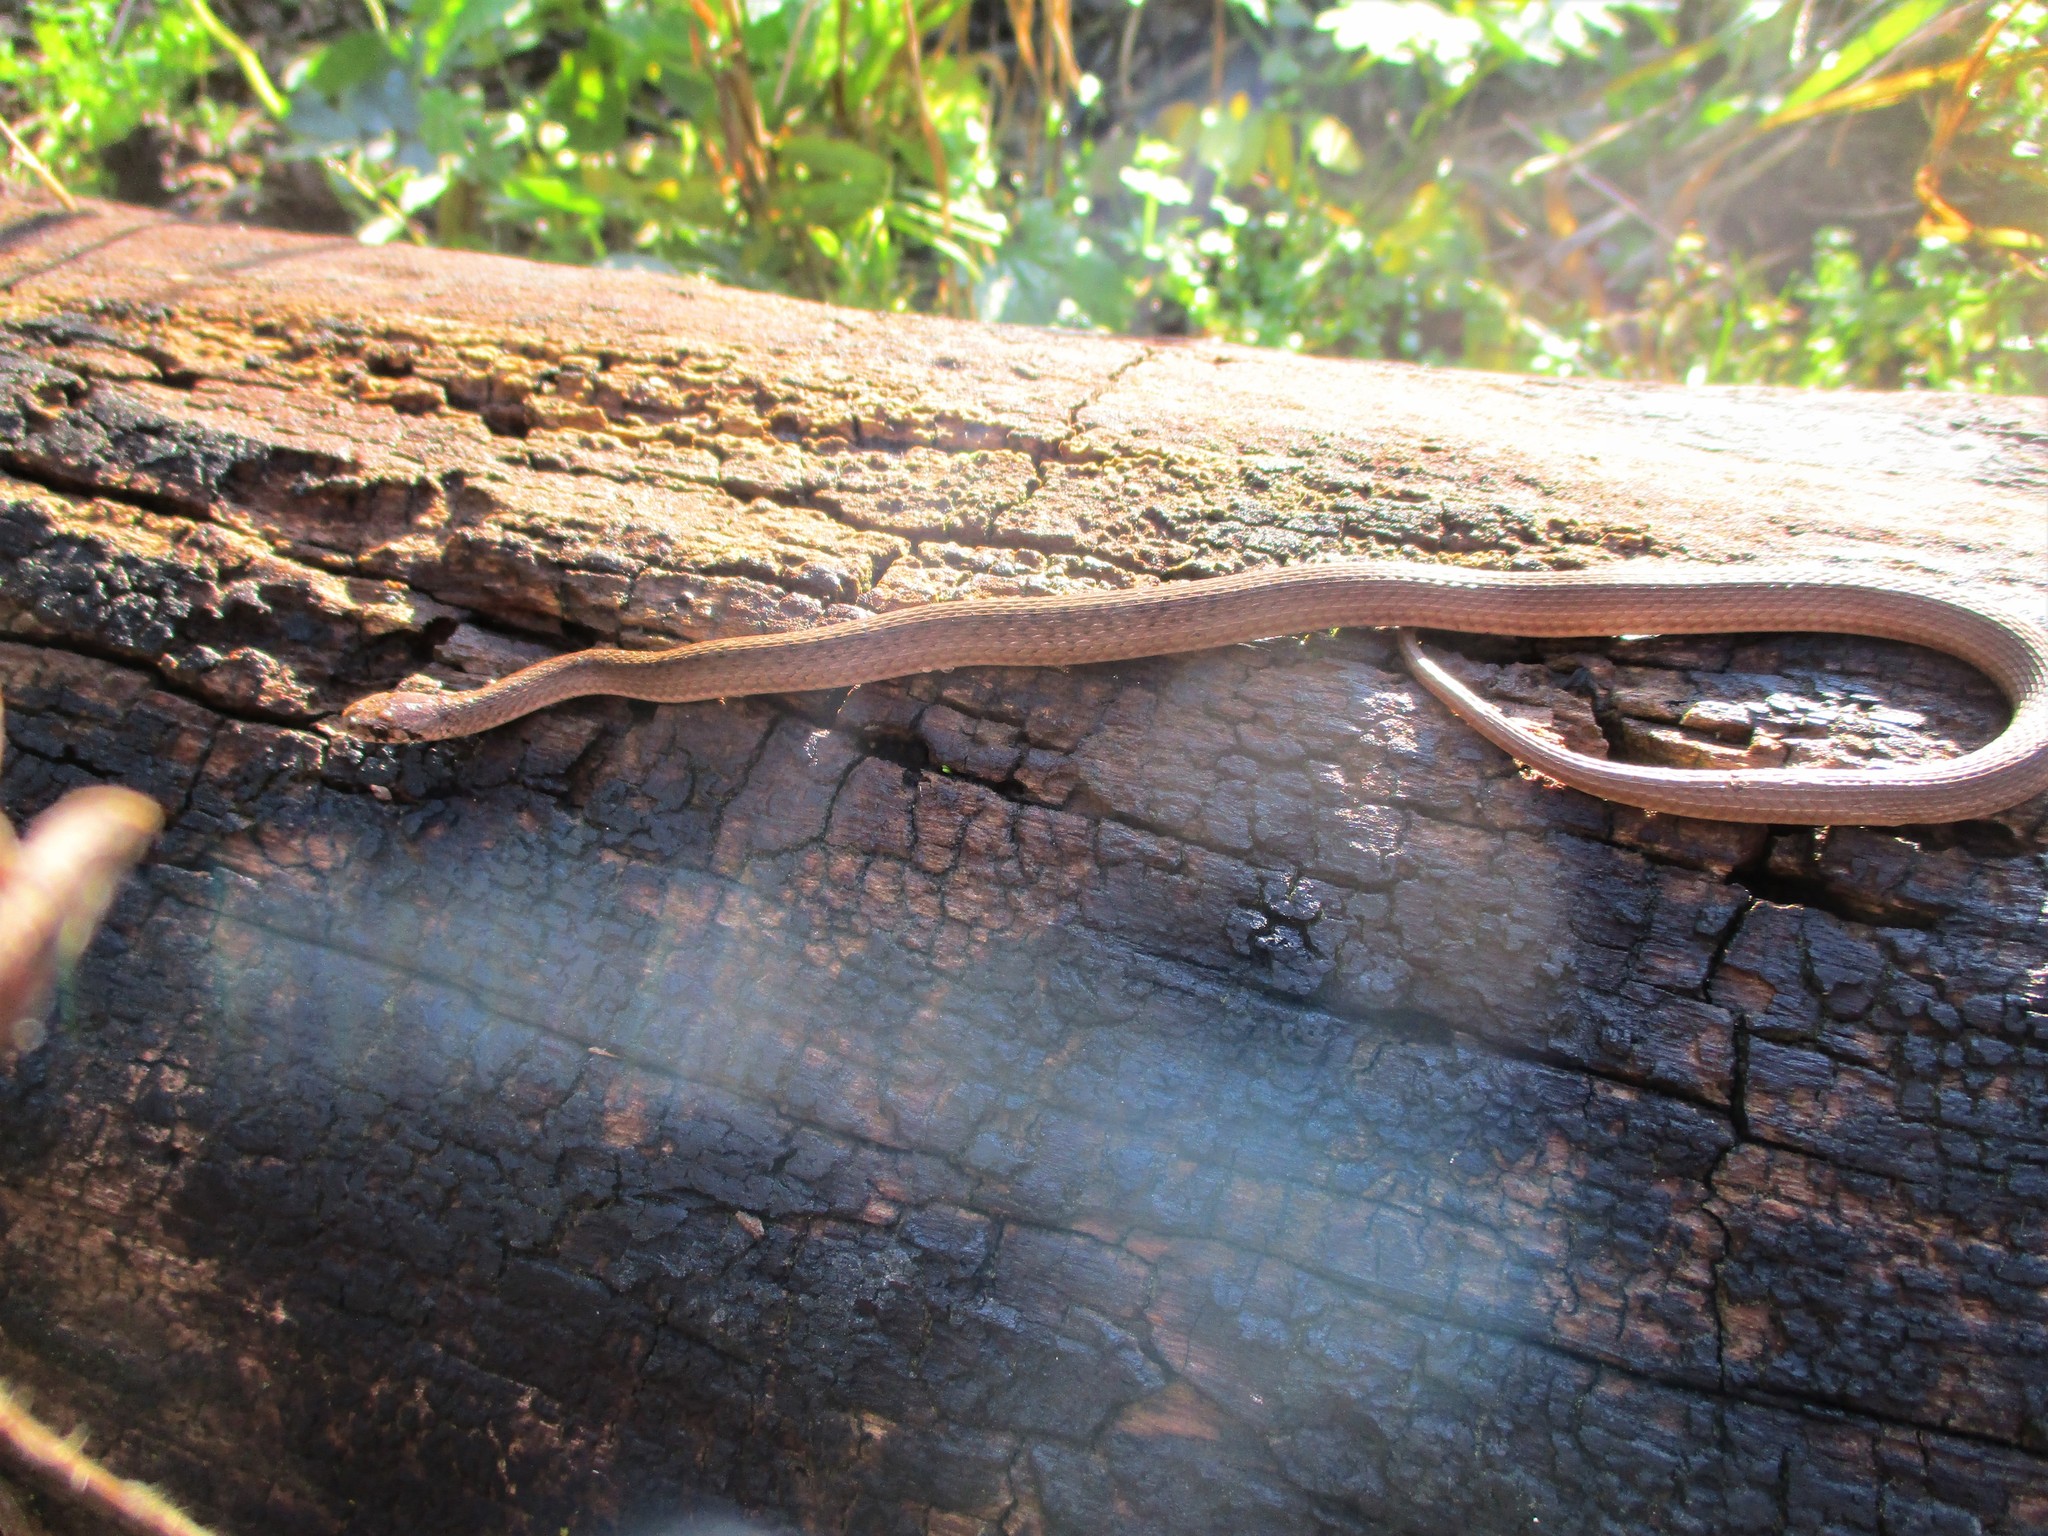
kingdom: Animalia
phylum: Chordata
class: Squamata
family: Colubridae
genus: Storeria
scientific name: Storeria dekayi
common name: (dekay’s) brown snake
